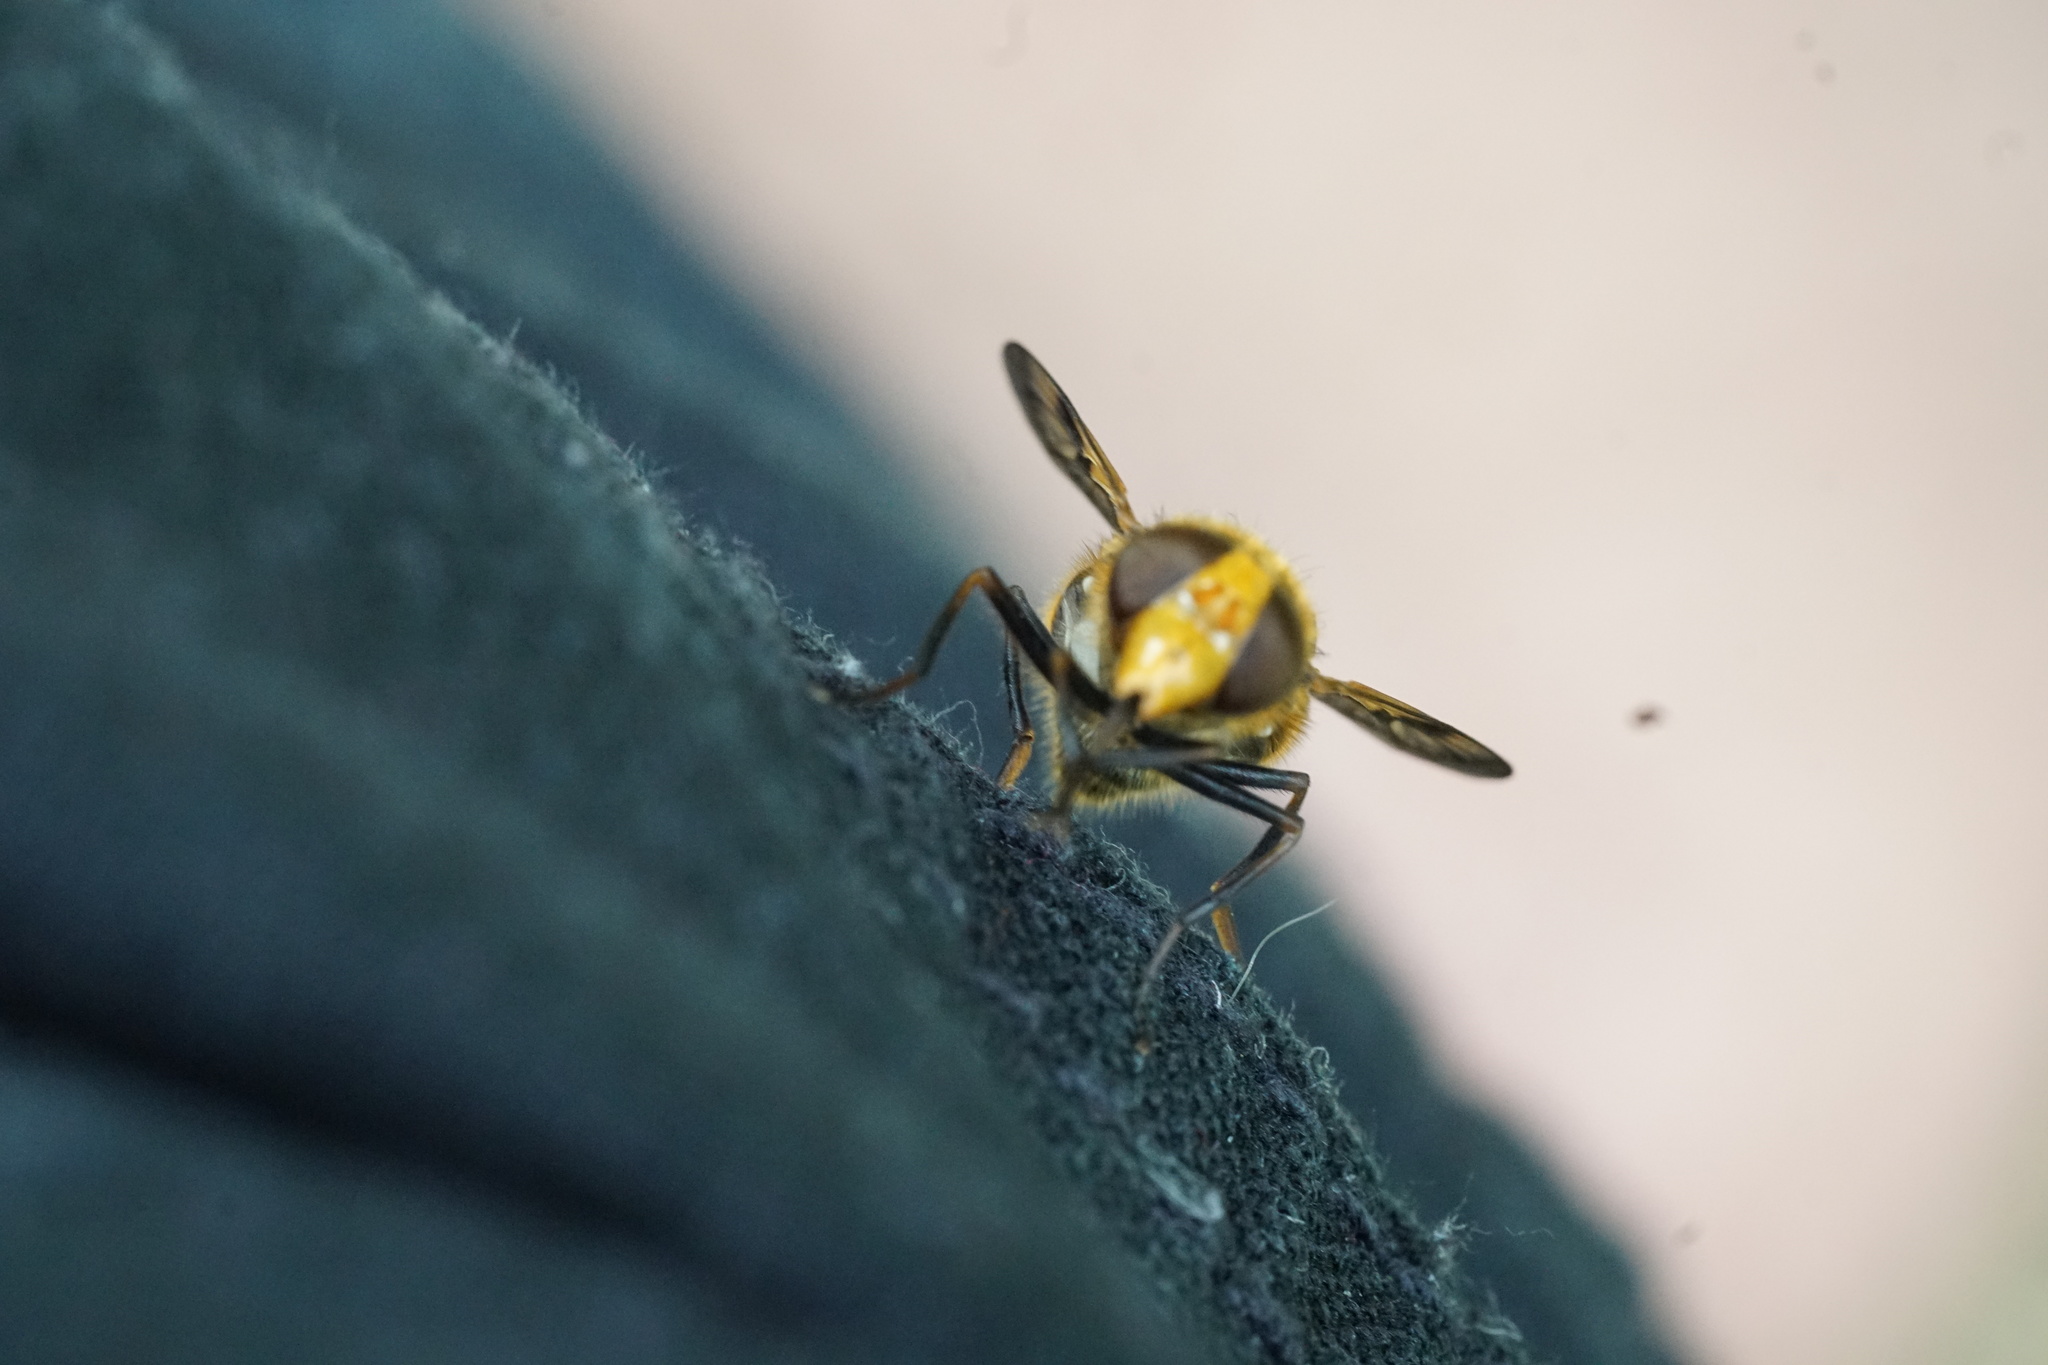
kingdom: Animalia
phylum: Arthropoda
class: Insecta
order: Diptera
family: Syrphidae
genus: Volucella
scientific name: Volucella inflata
